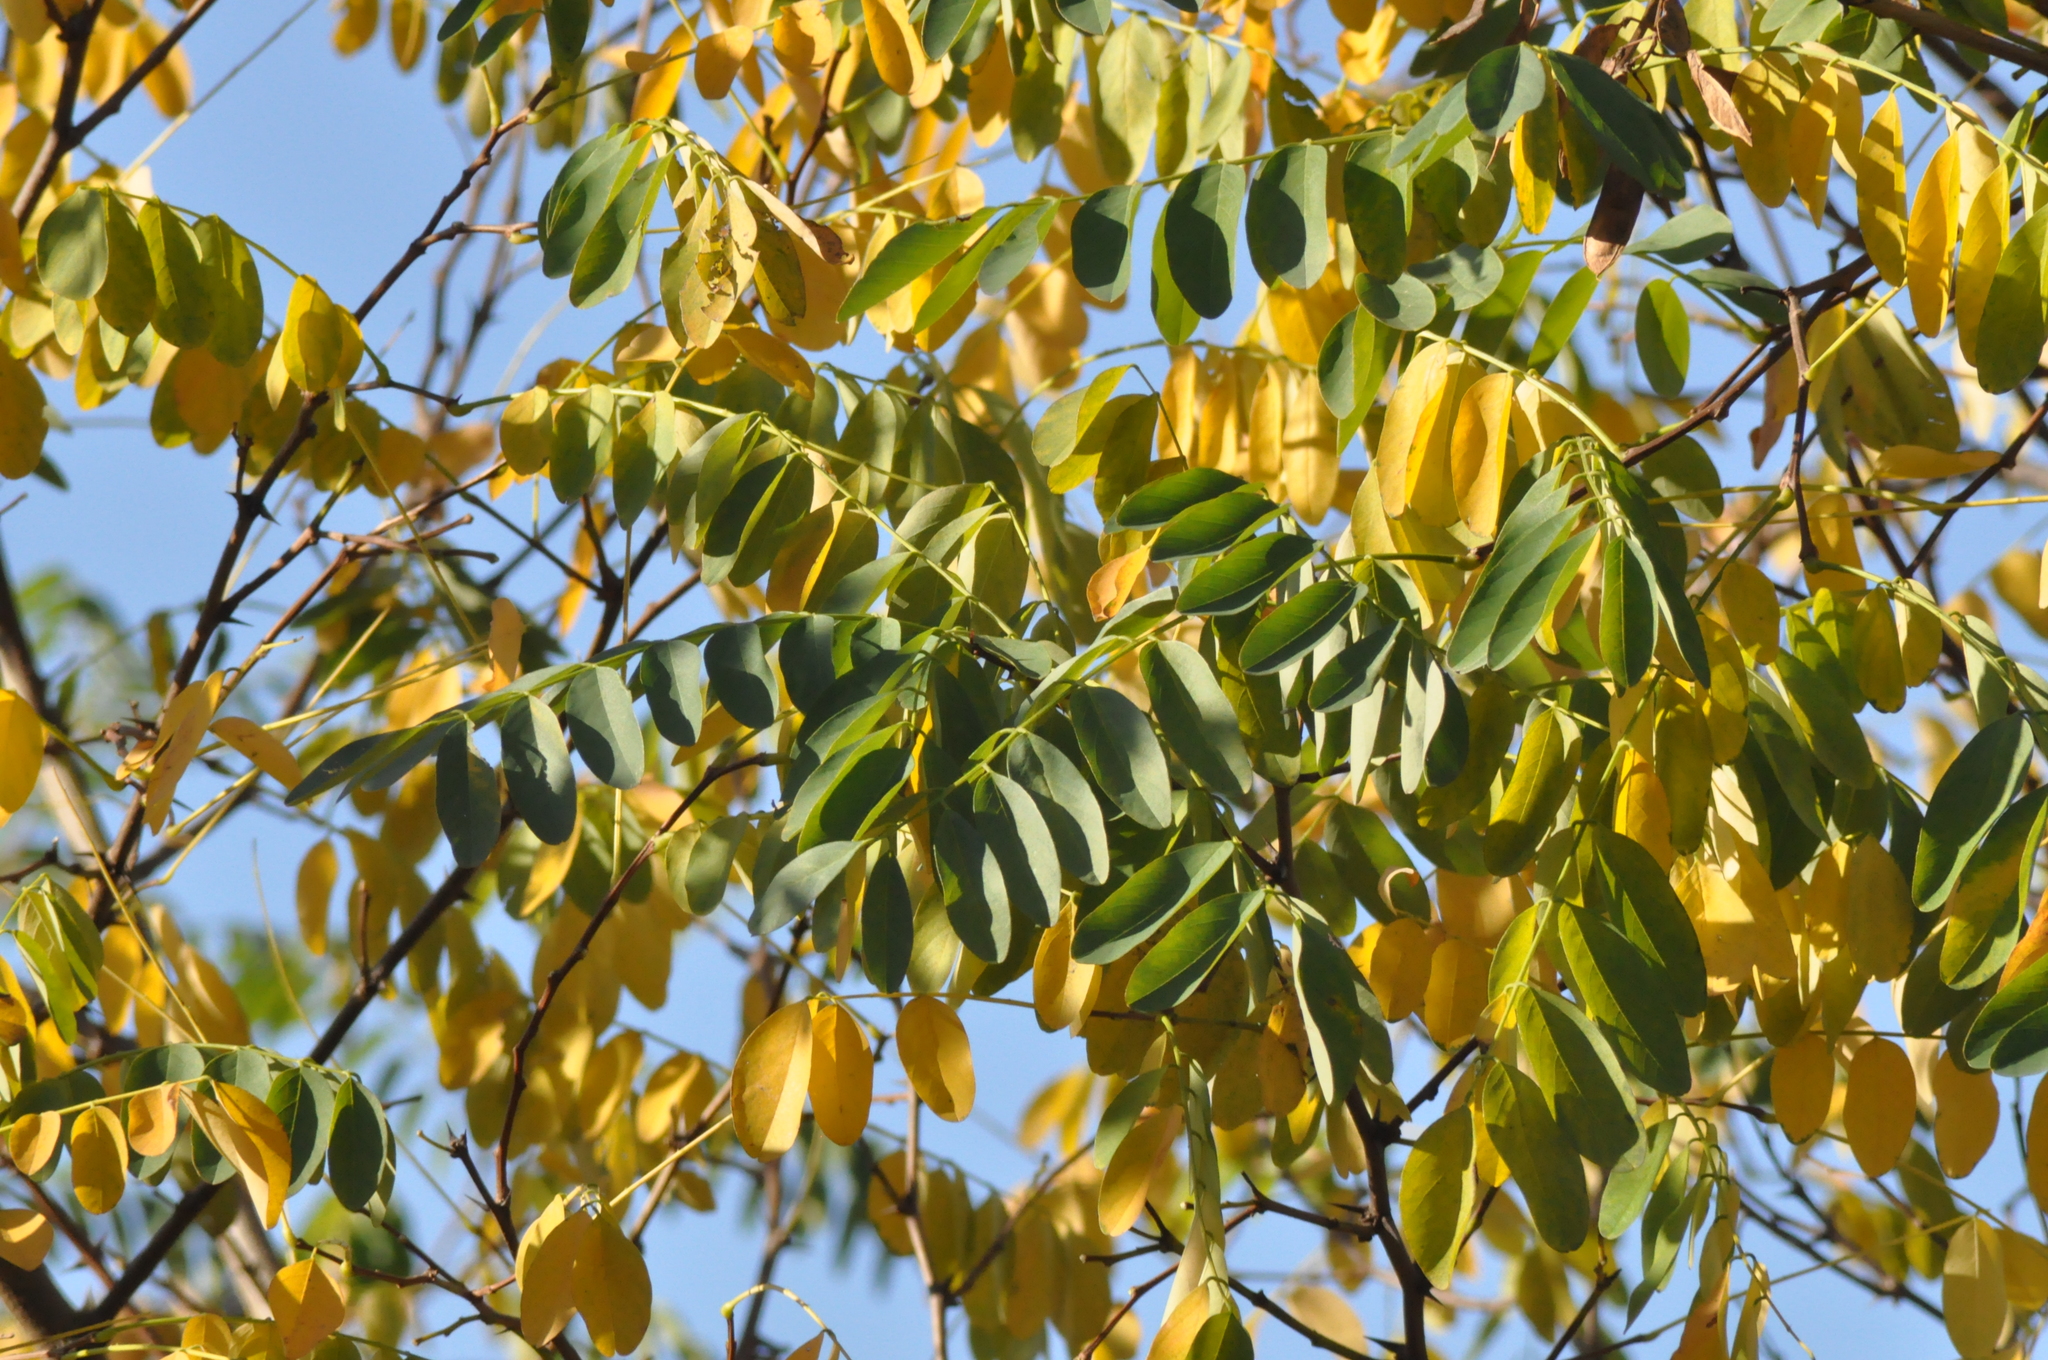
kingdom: Plantae
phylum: Tracheophyta
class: Magnoliopsida
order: Fabales
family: Fabaceae
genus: Robinia
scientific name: Robinia pseudoacacia
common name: Black locust
